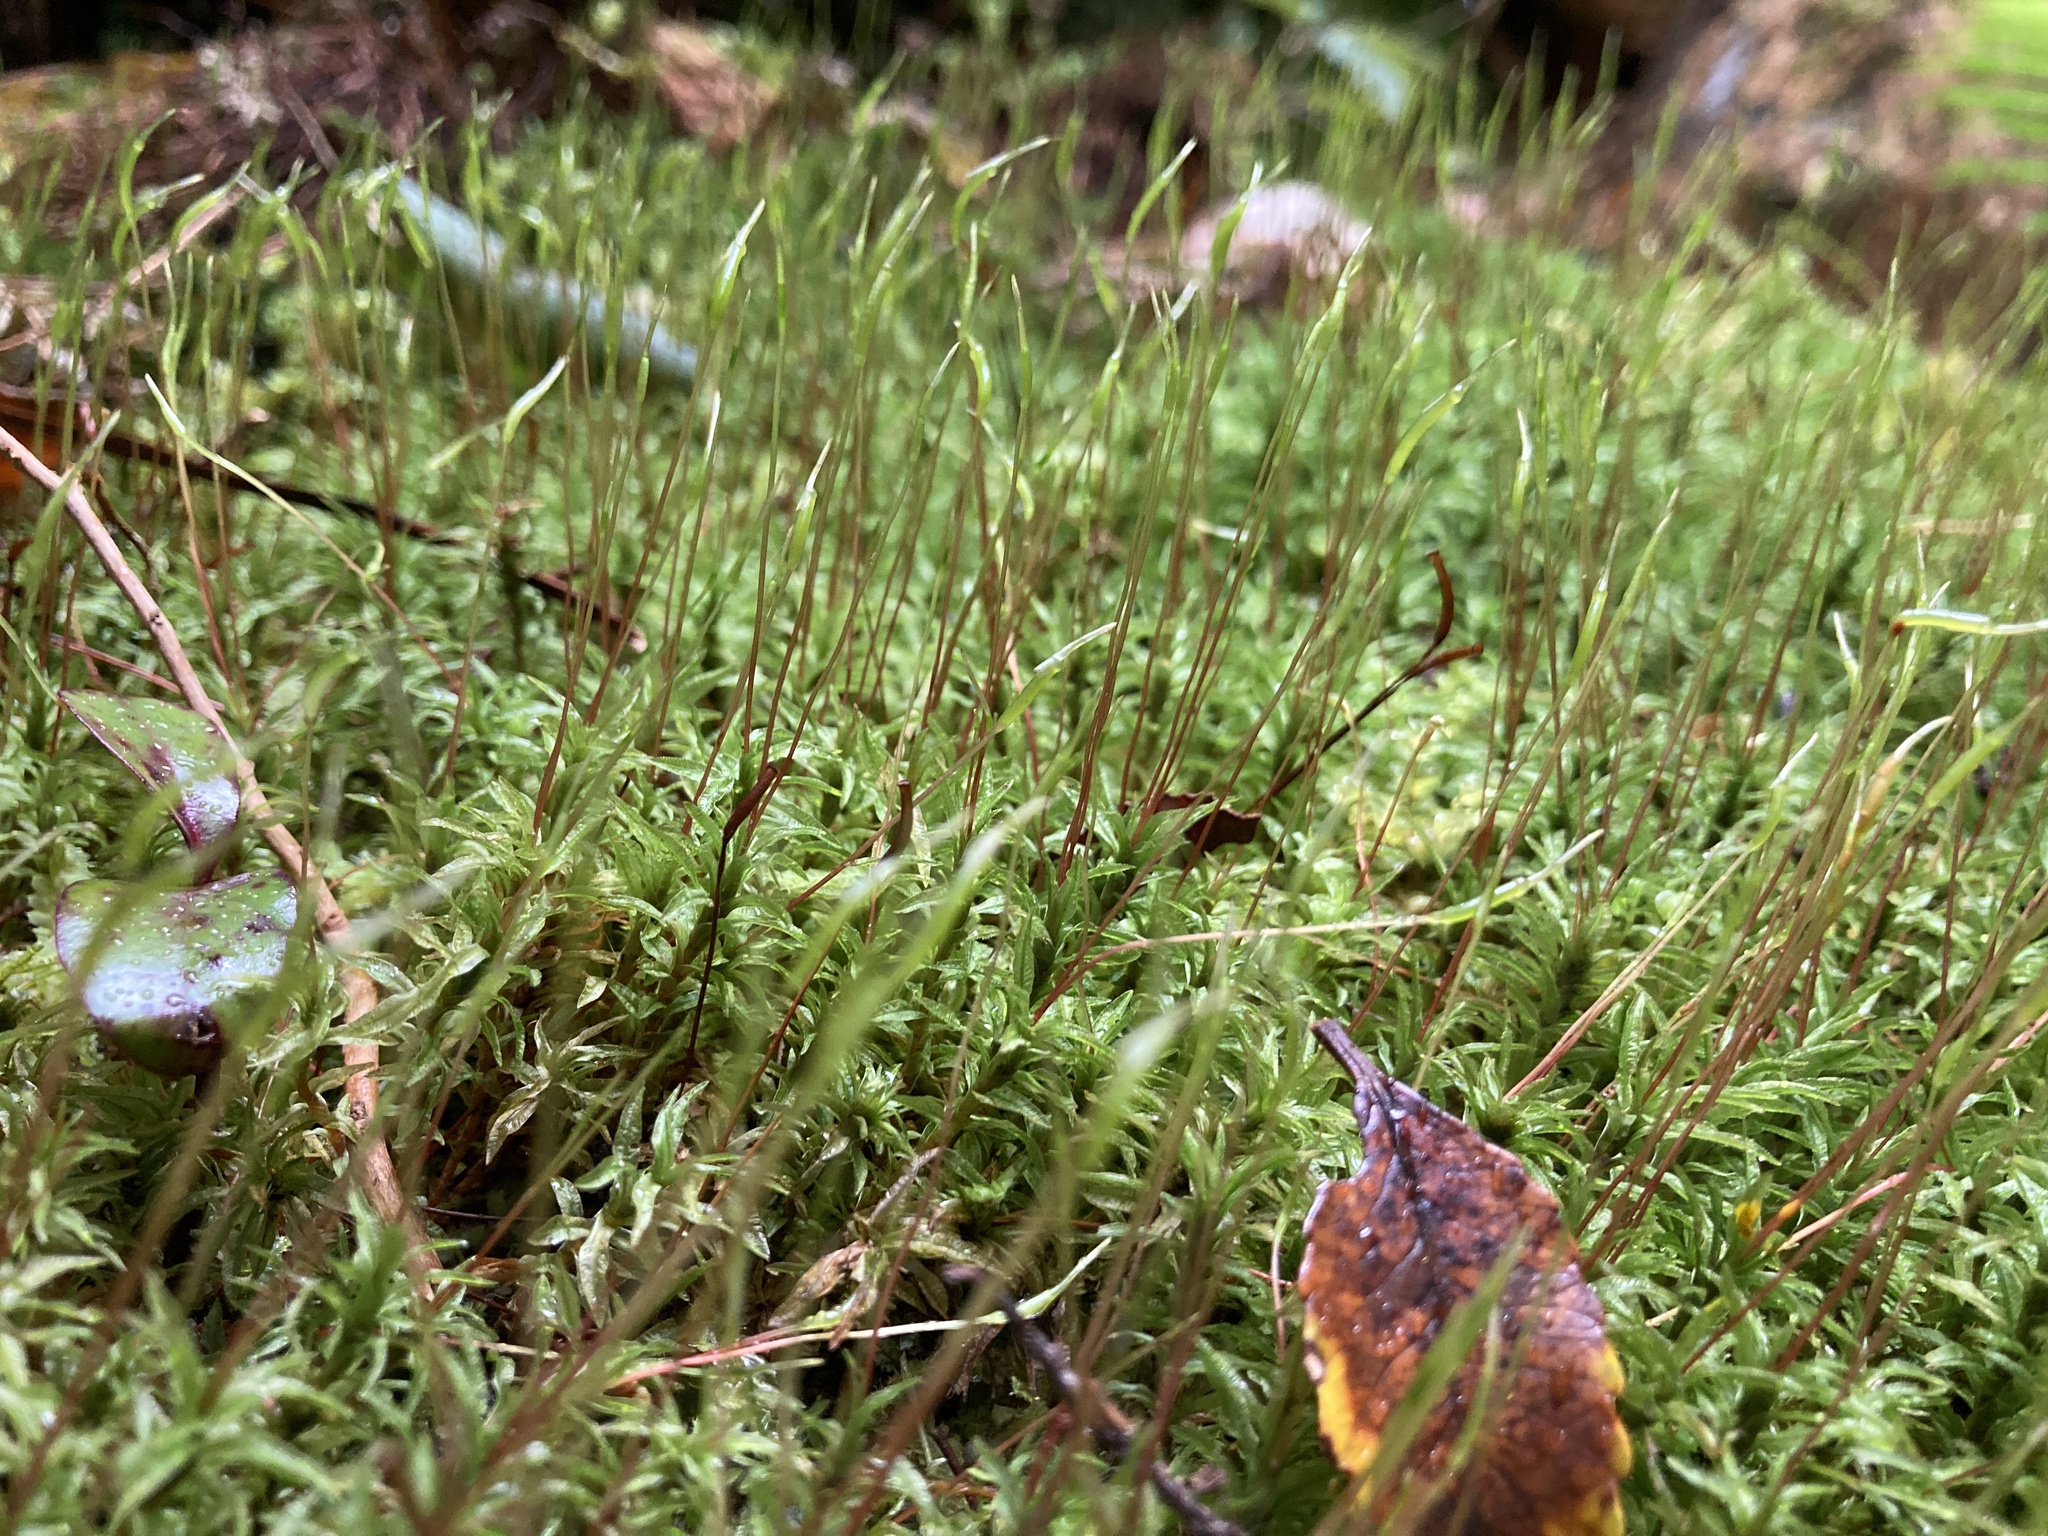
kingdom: Plantae
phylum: Bryophyta
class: Polytrichopsida
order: Polytrichales
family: Polytrichaceae
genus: Atrichum
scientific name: Atrichum androgynum
